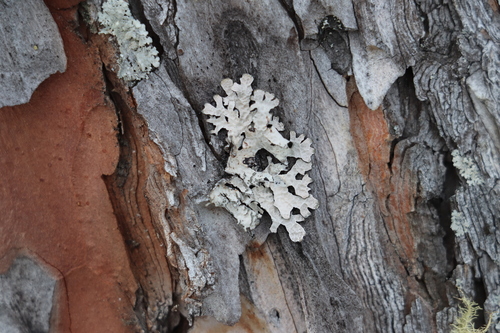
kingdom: Fungi
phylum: Ascomycota
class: Lecanoromycetes
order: Lecanorales
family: Parmeliaceae
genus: Parmelia
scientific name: Parmelia sulcata
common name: Netted shield lichen
